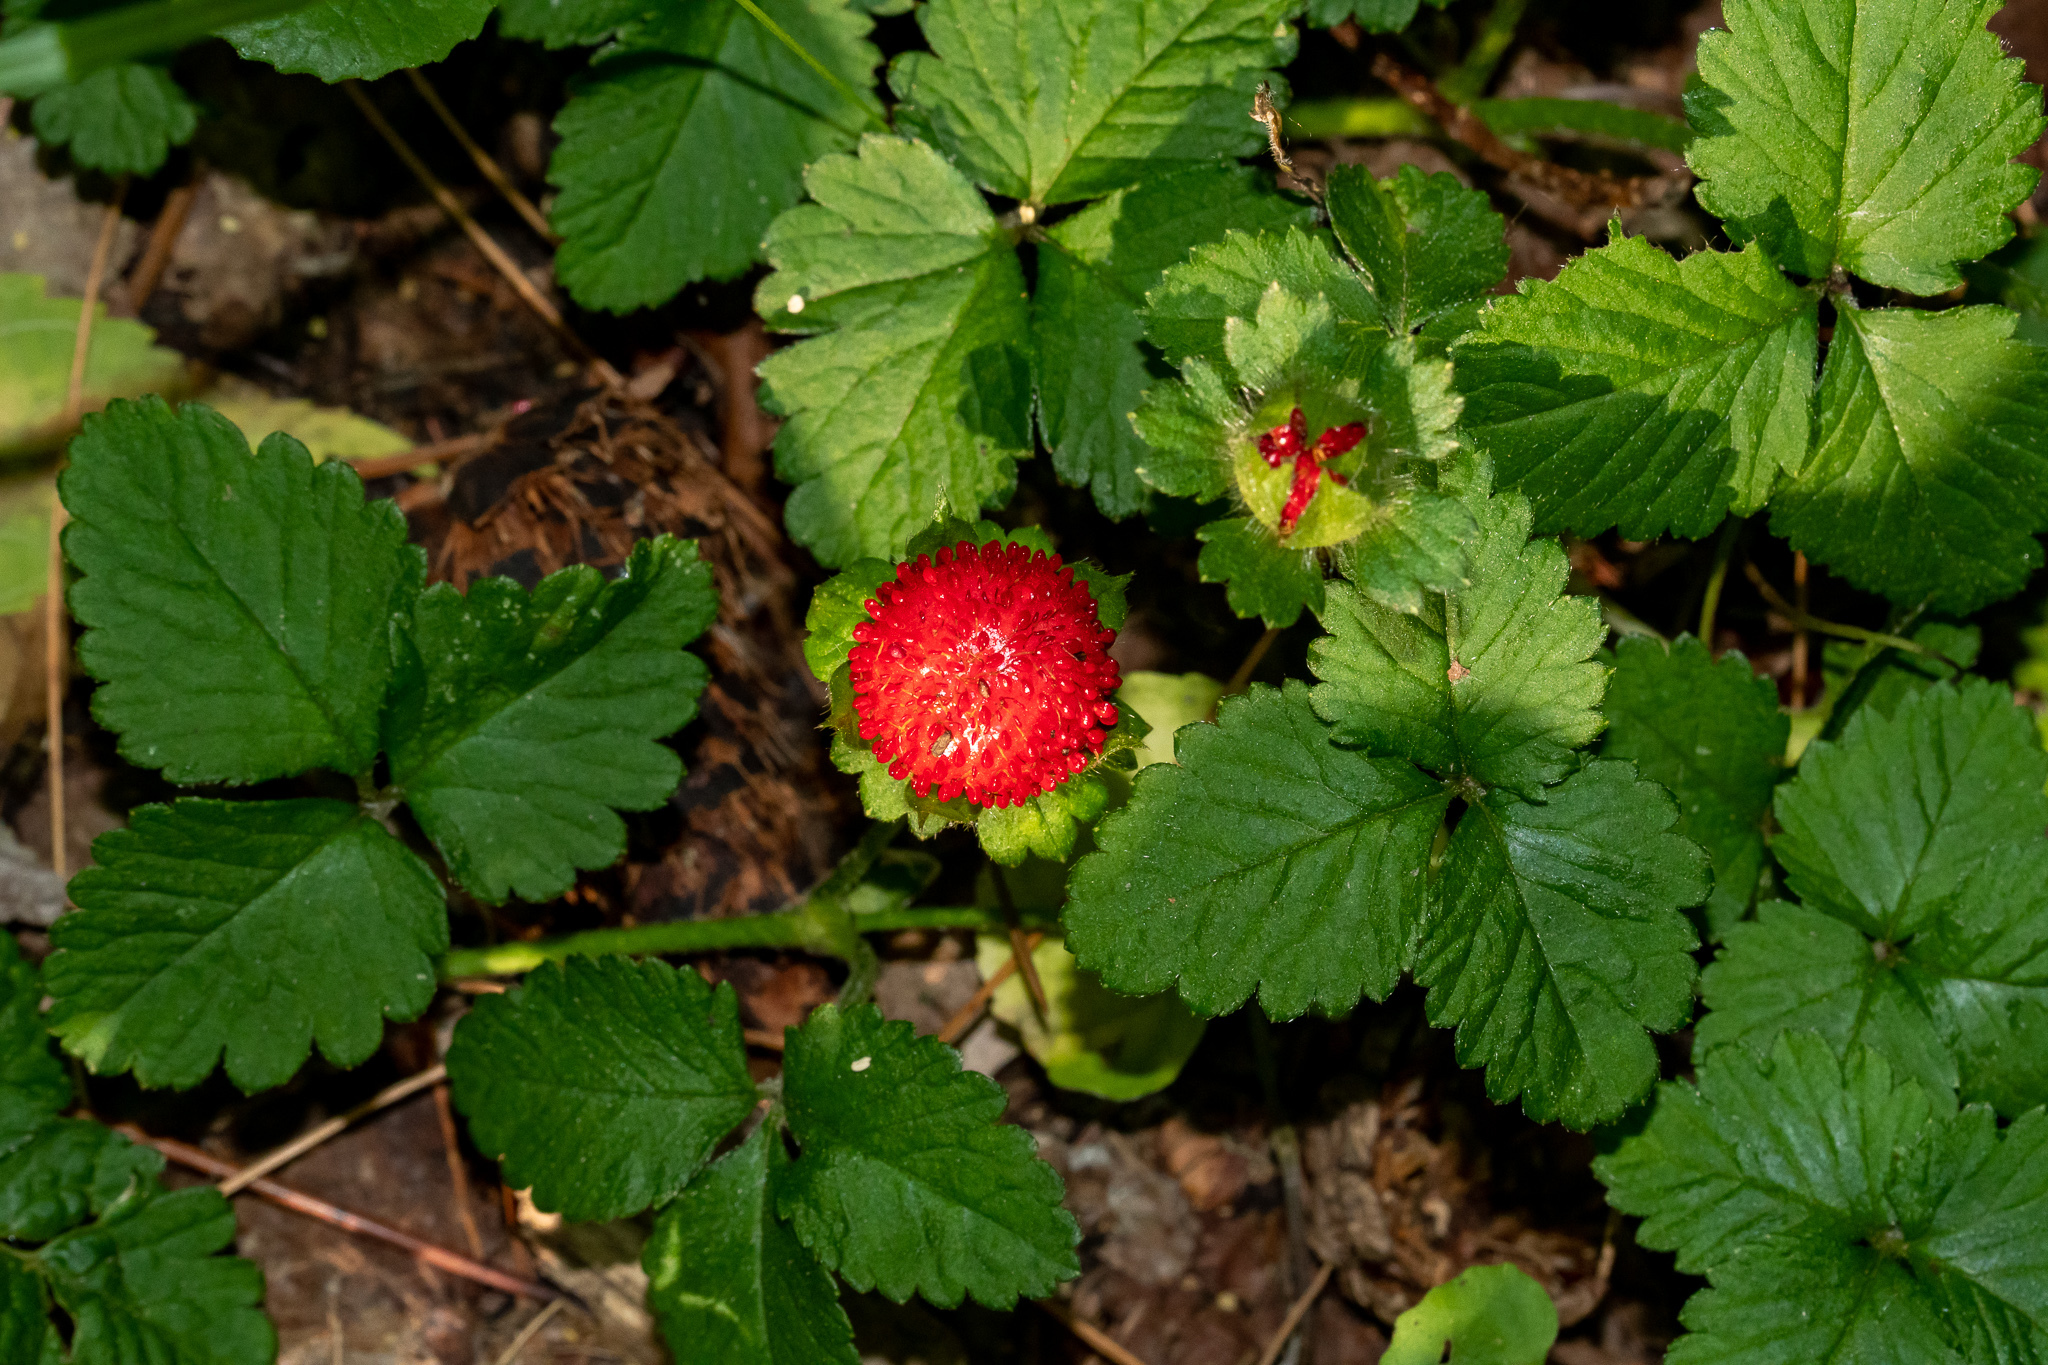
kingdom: Plantae
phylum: Tracheophyta
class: Magnoliopsida
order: Rosales
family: Rosaceae
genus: Potentilla
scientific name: Potentilla indica
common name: Yellow-flowered strawberry
